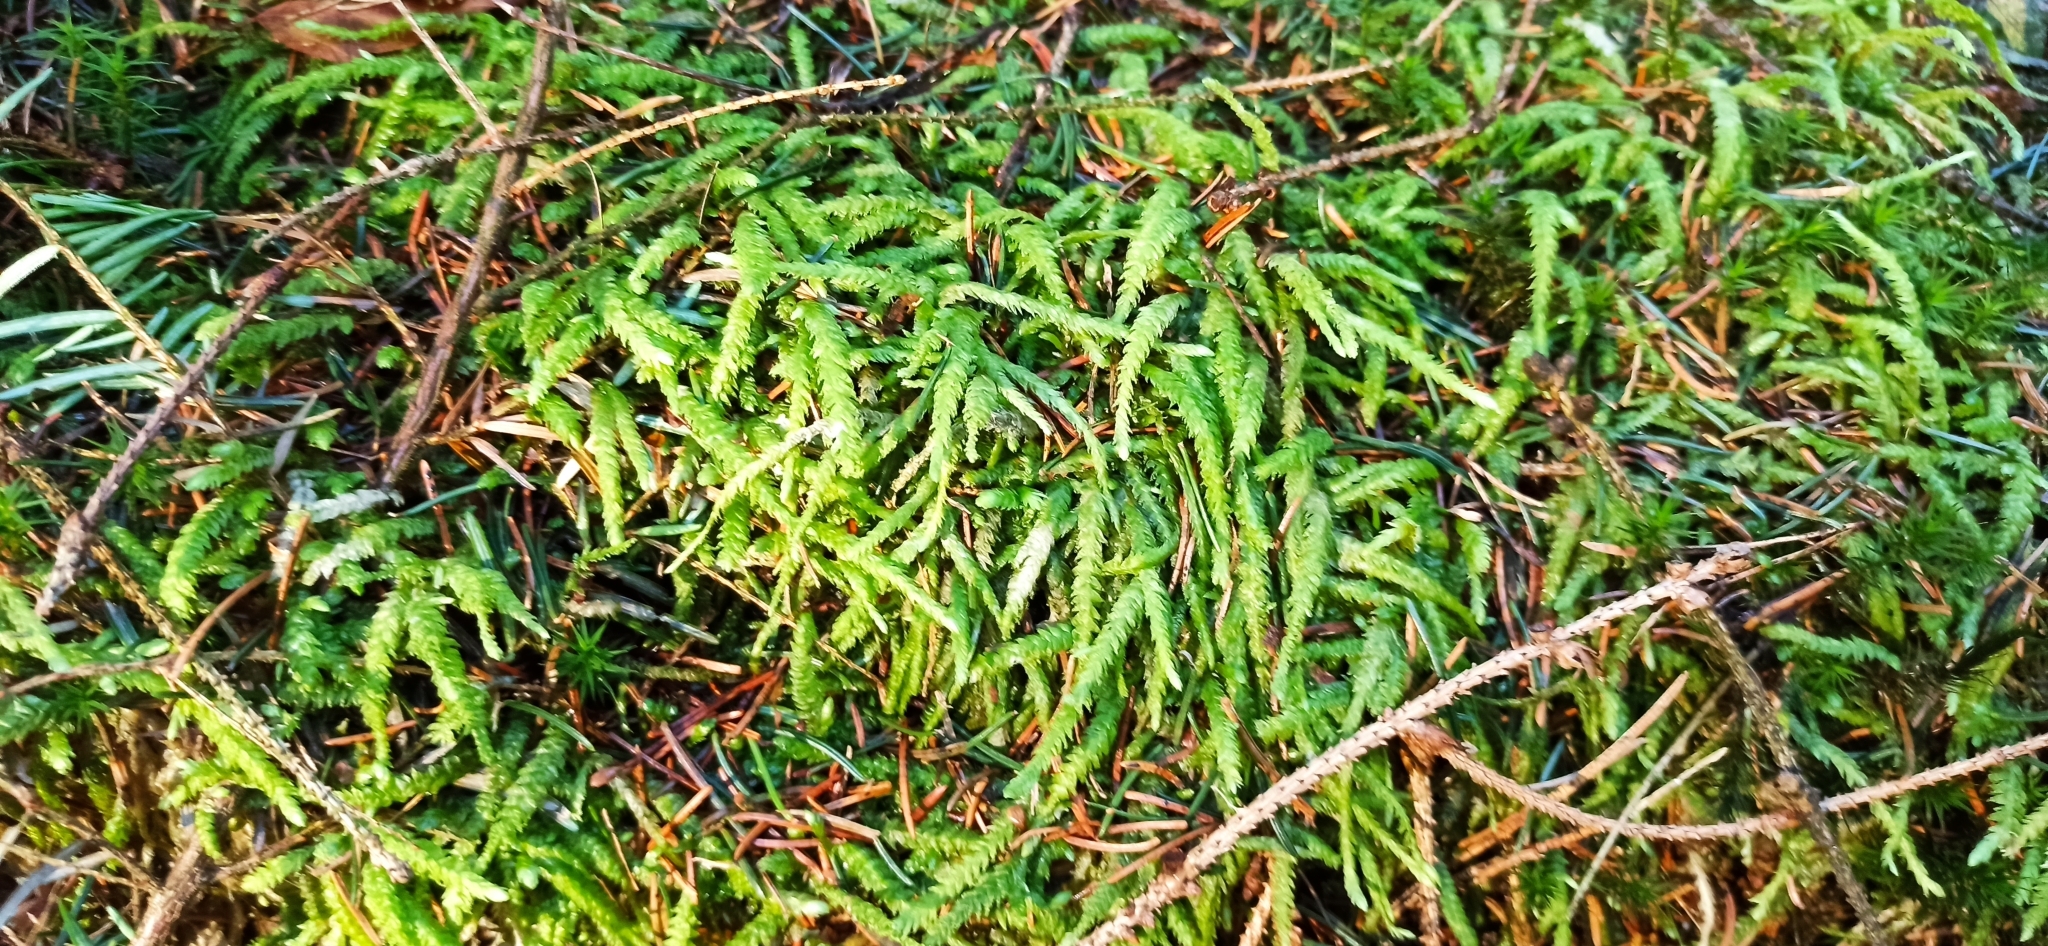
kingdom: Plantae
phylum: Bryophyta
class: Bryopsida
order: Hypnales
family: Plagiotheciaceae
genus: Plagiothecium
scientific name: Plagiothecium undulatum
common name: Waved silk-moss
